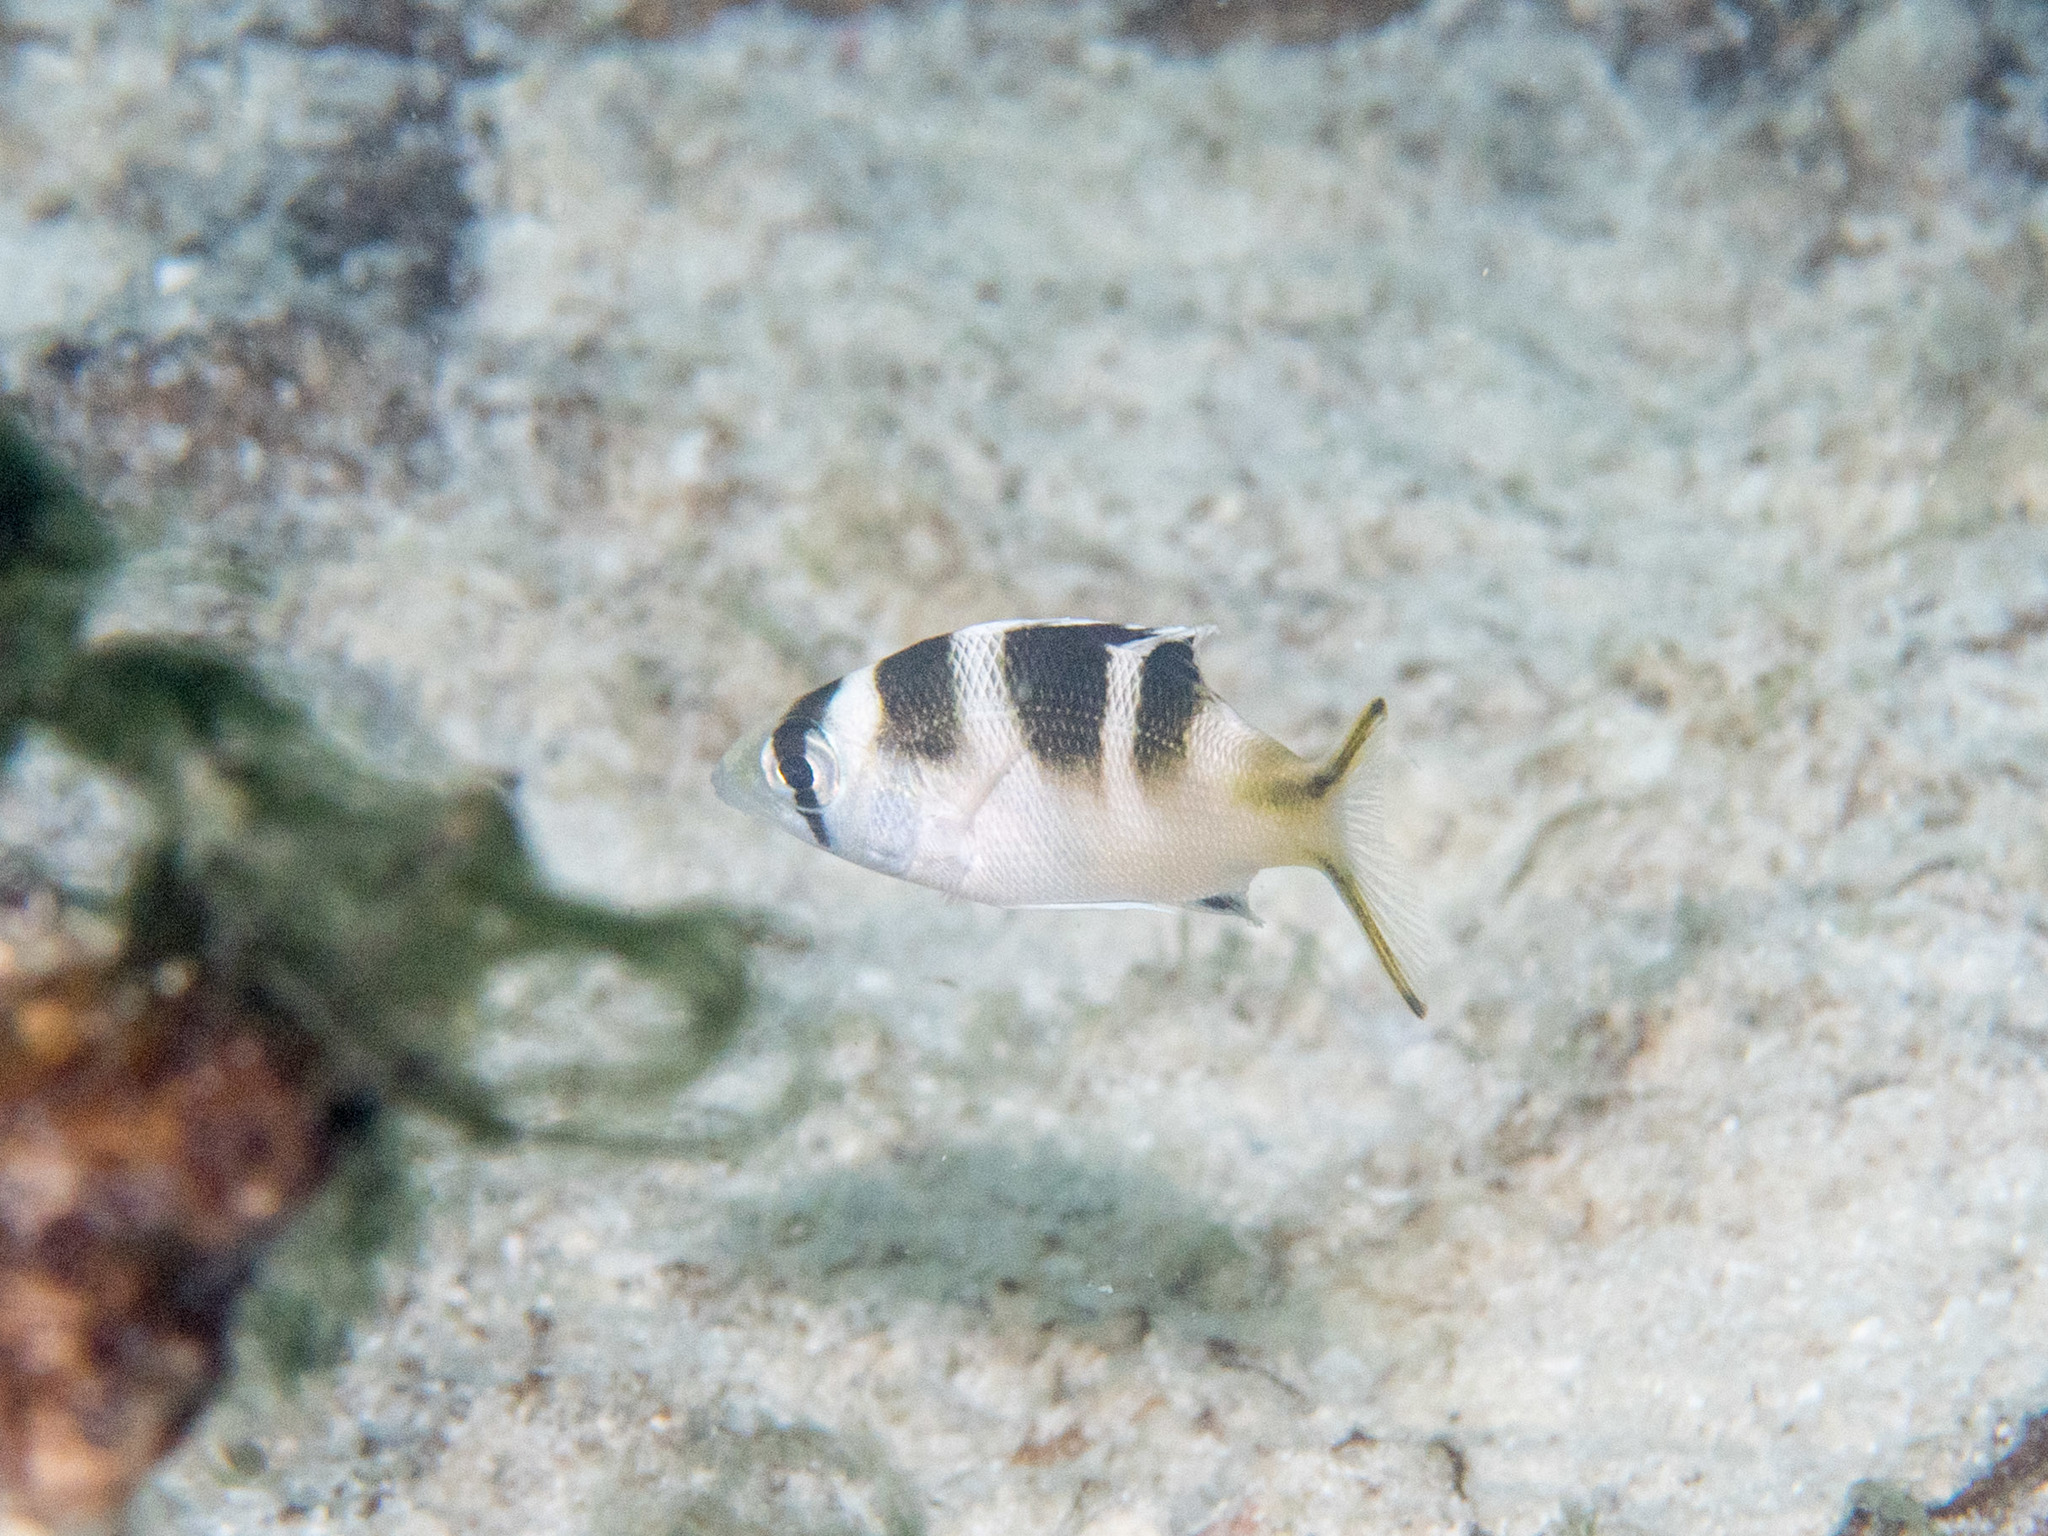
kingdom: Animalia
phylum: Chordata
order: Perciformes
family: Lethrinidae
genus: Monotaxis
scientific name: Monotaxis grandoculis
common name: Bigeye emperor
